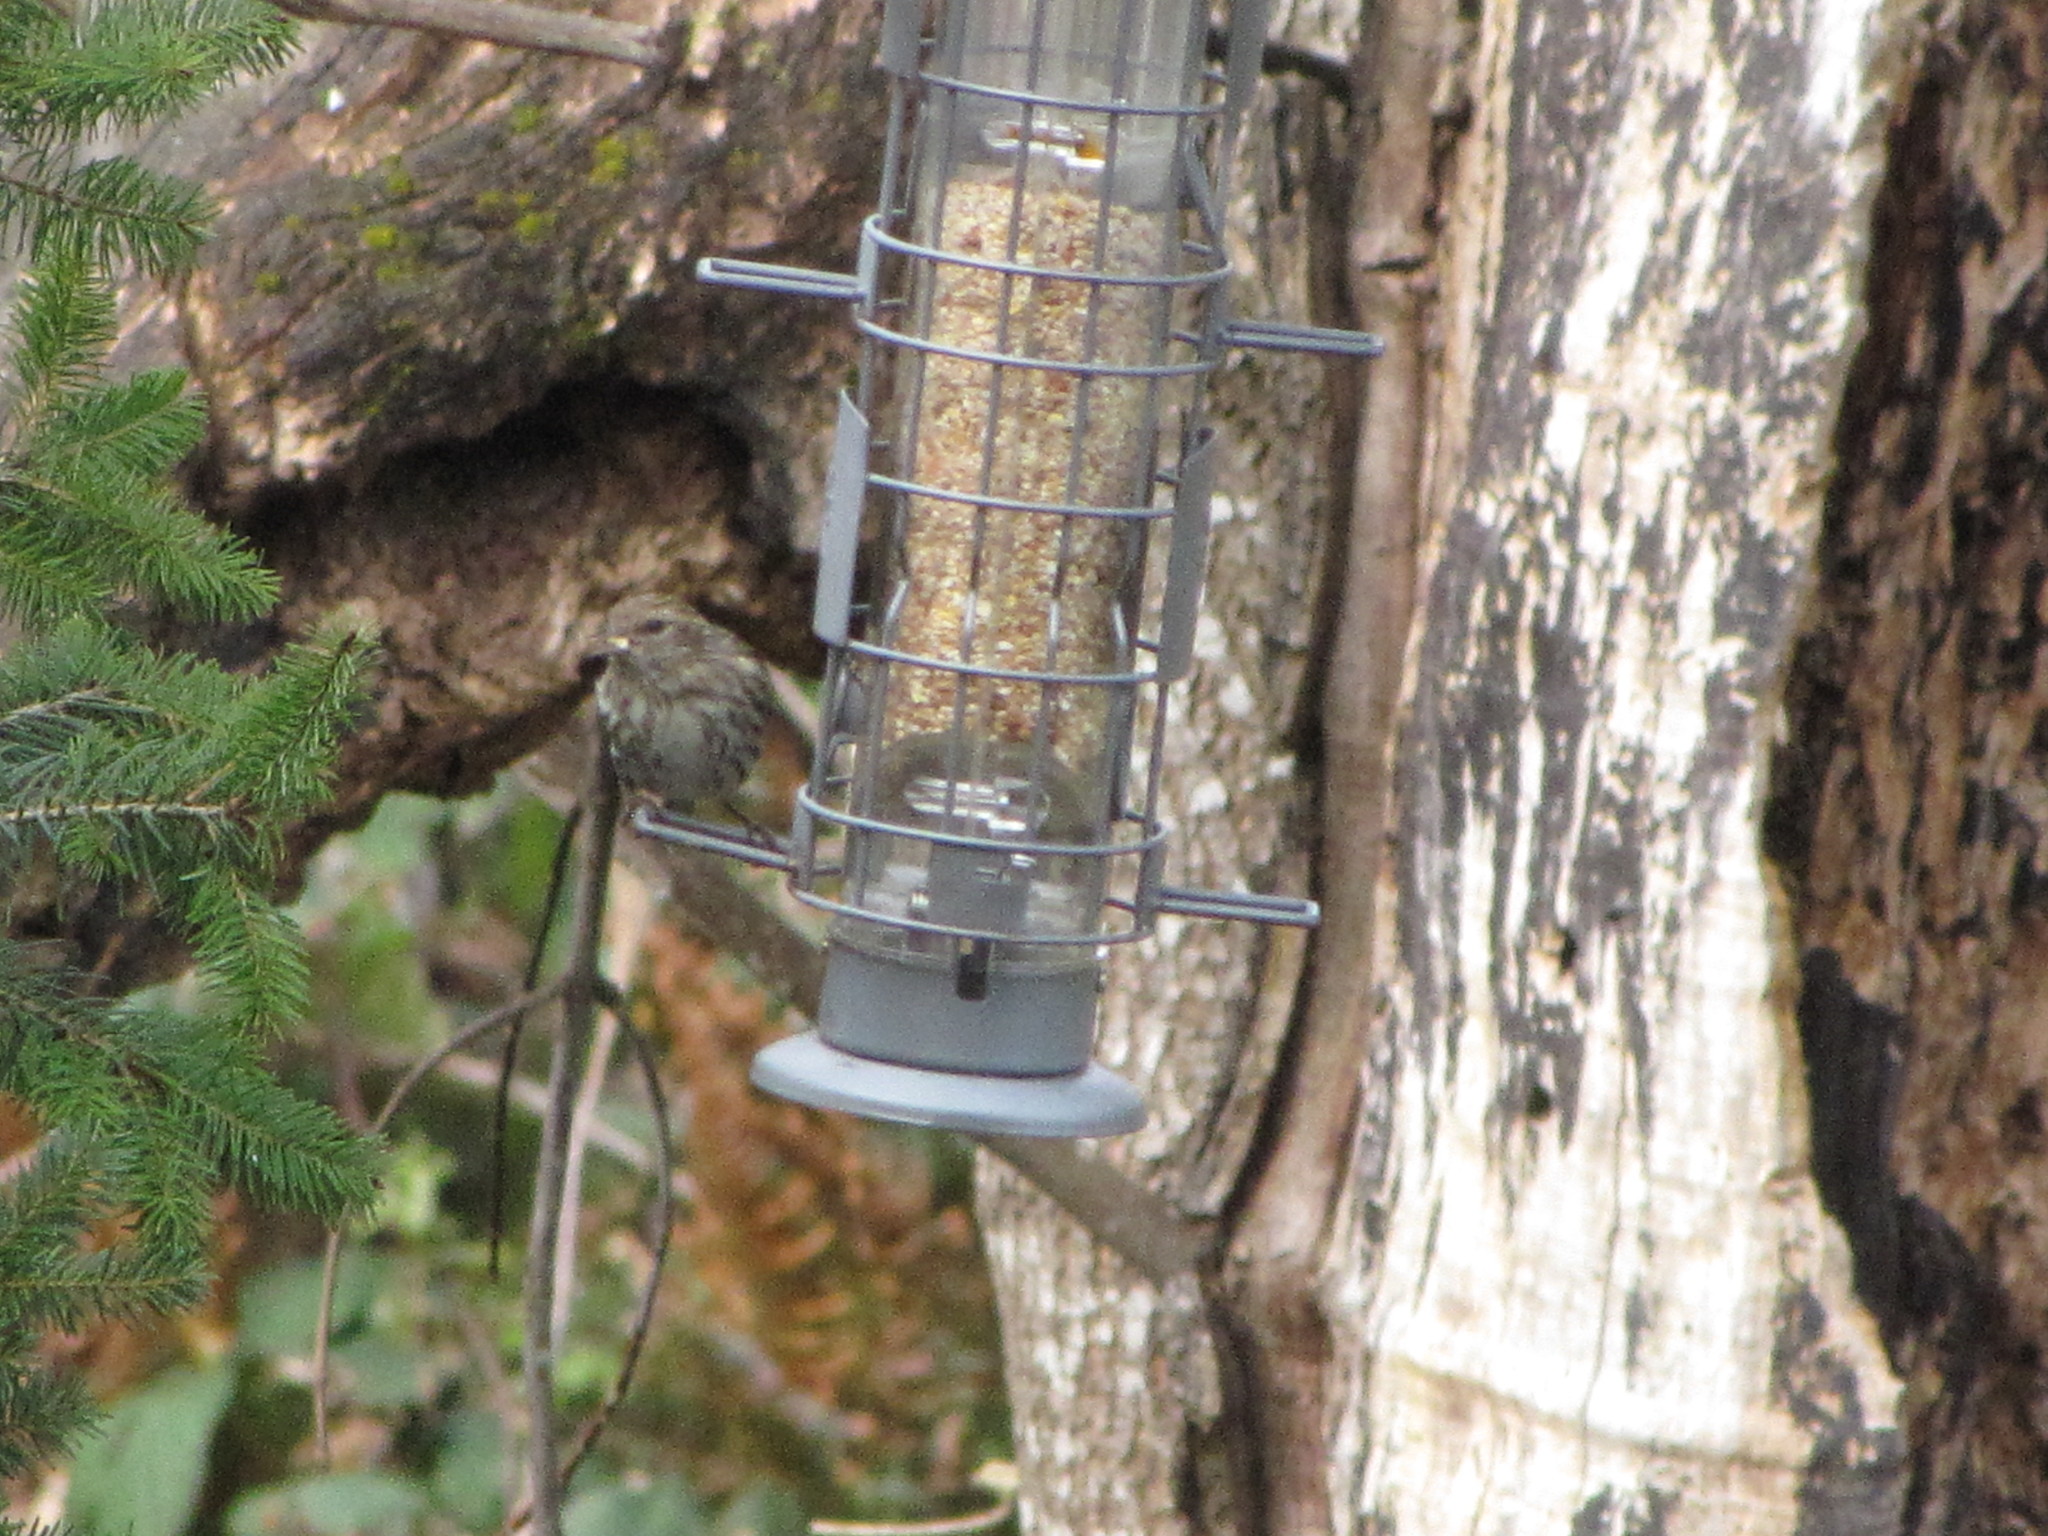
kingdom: Animalia
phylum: Chordata
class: Aves
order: Passeriformes
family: Fringillidae
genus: Spinus
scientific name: Spinus pinus
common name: Pine siskin
